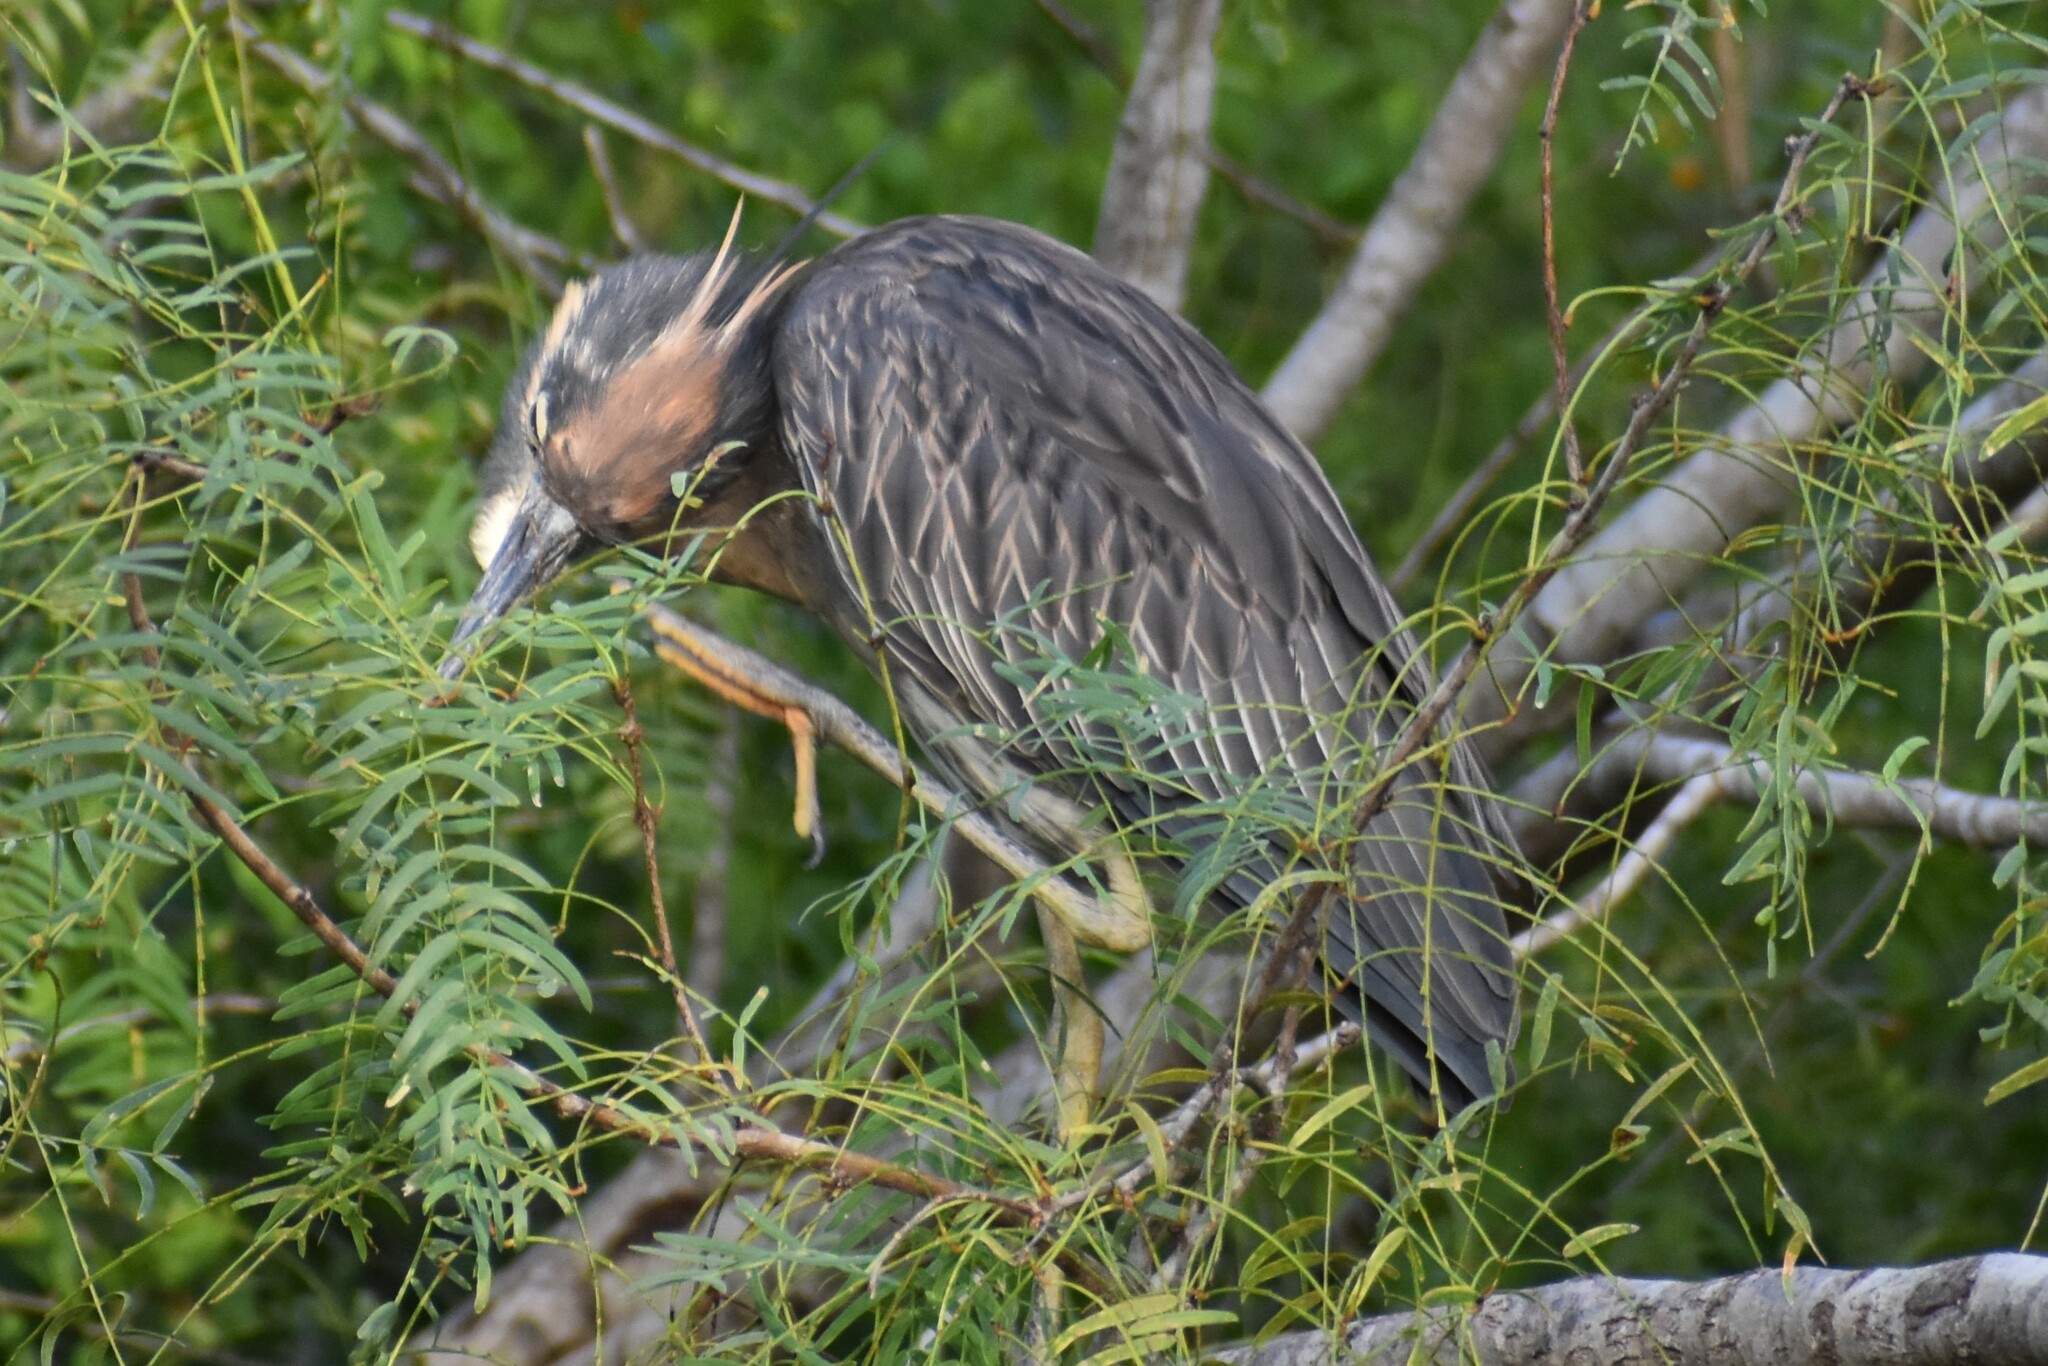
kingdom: Animalia
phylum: Chordata
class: Aves
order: Pelecaniformes
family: Ardeidae
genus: Nyctanassa
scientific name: Nyctanassa violacea
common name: Yellow-crowned night heron
